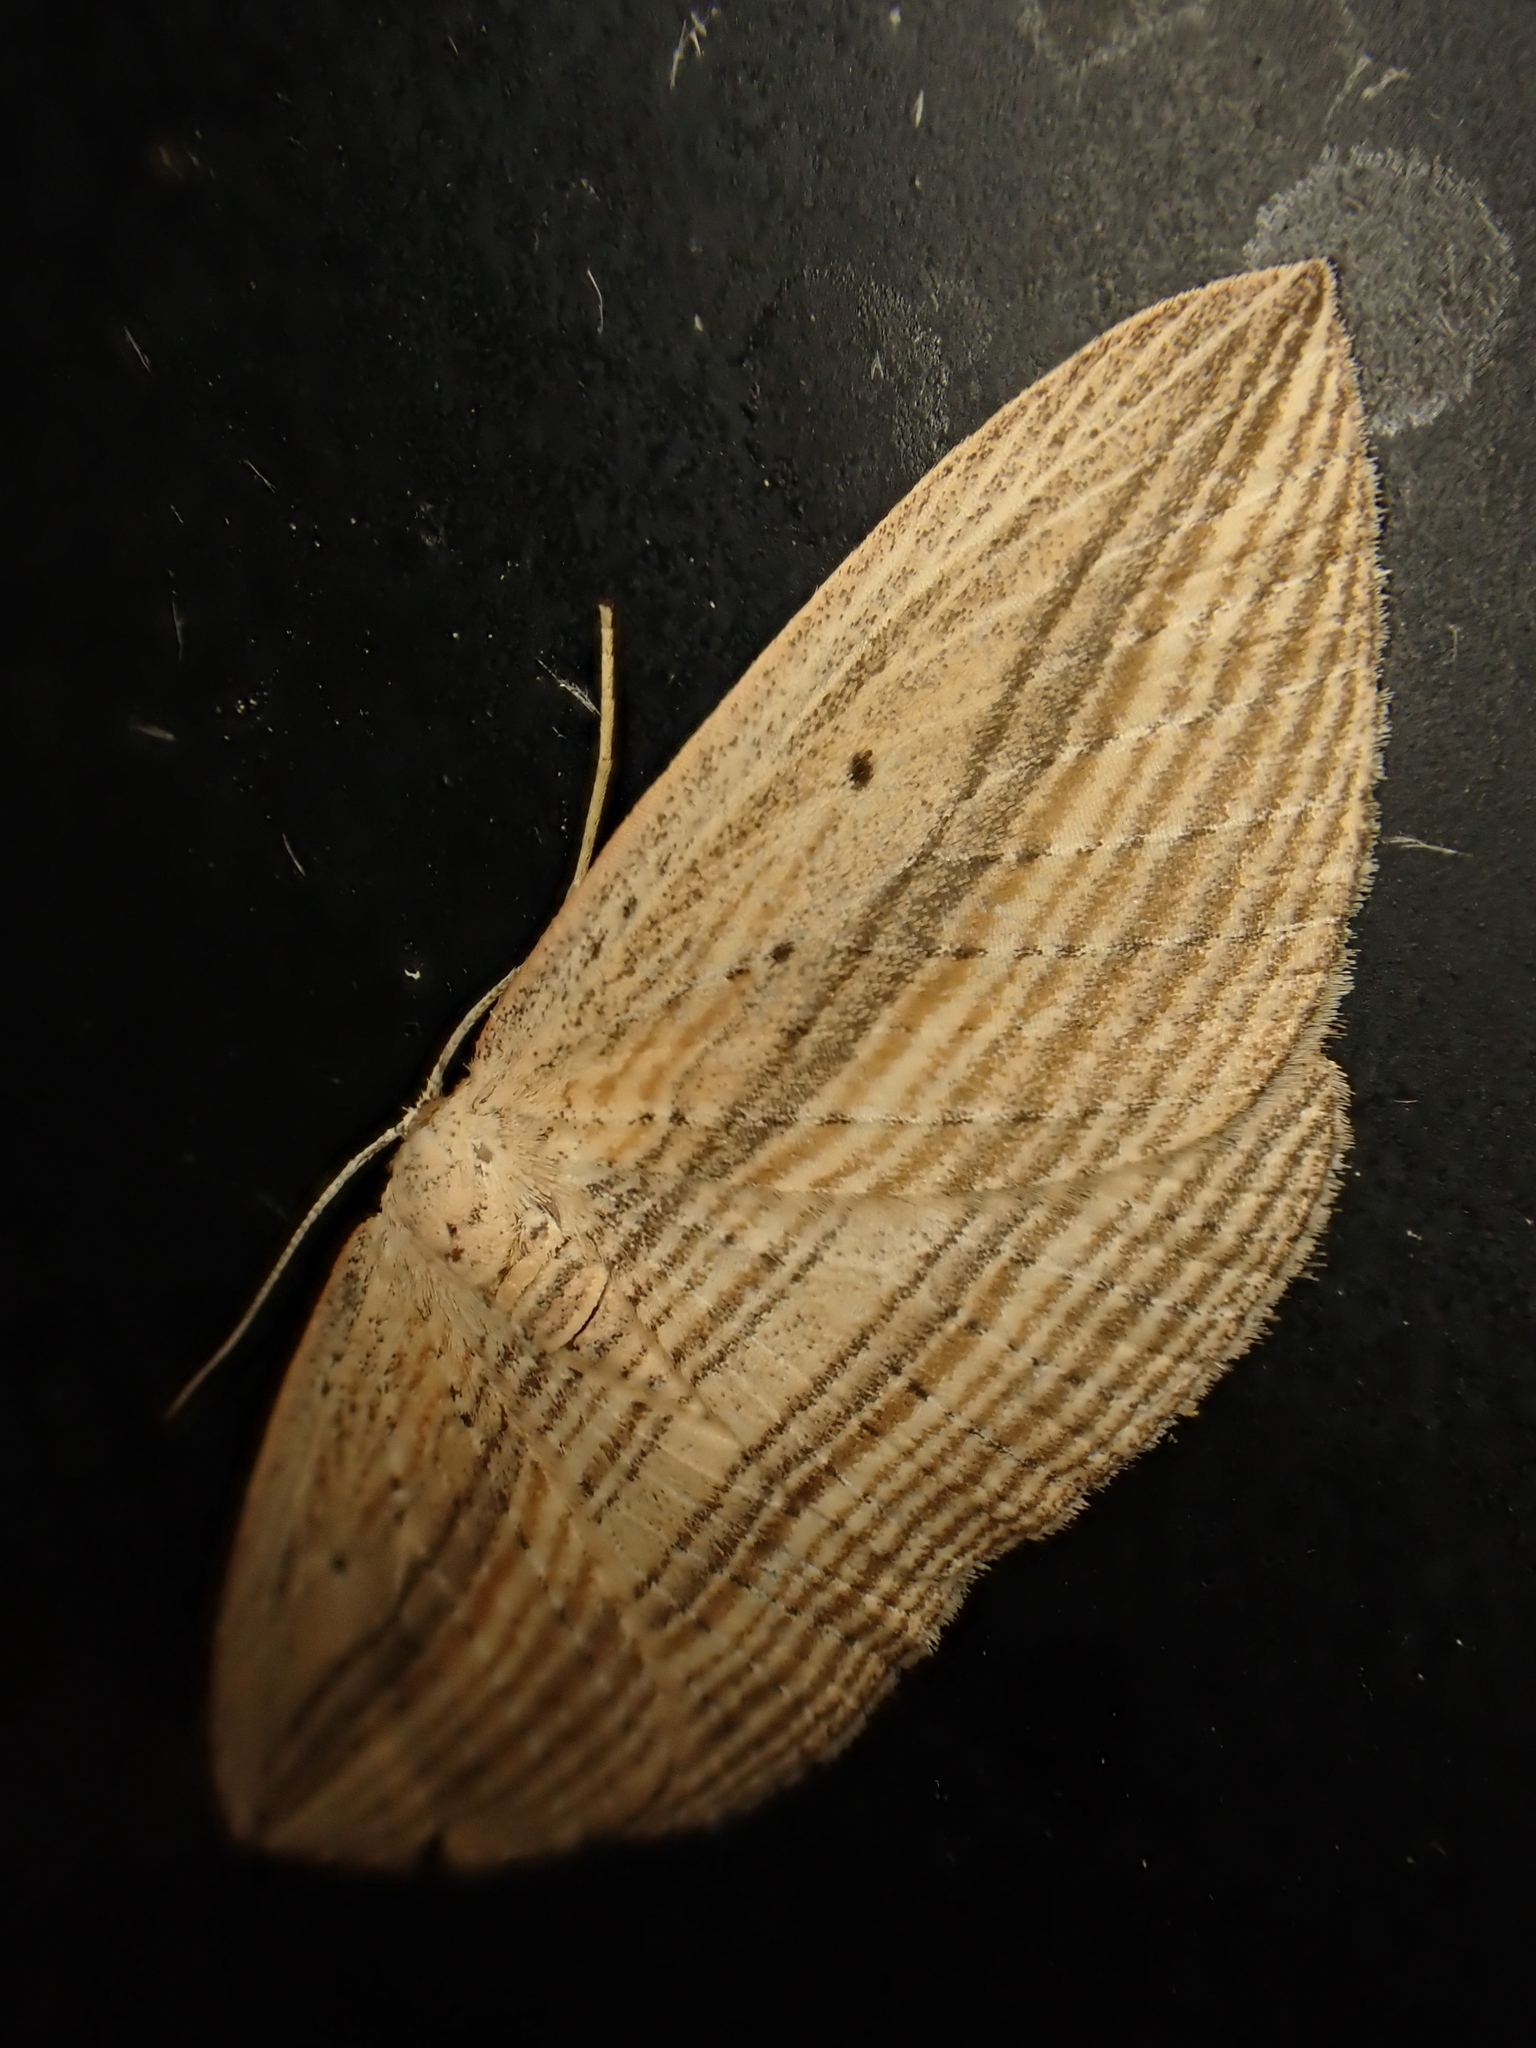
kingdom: Animalia
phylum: Arthropoda
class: Insecta
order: Lepidoptera
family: Geometridae
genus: Epiphryne
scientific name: Epiphryne verriculata
